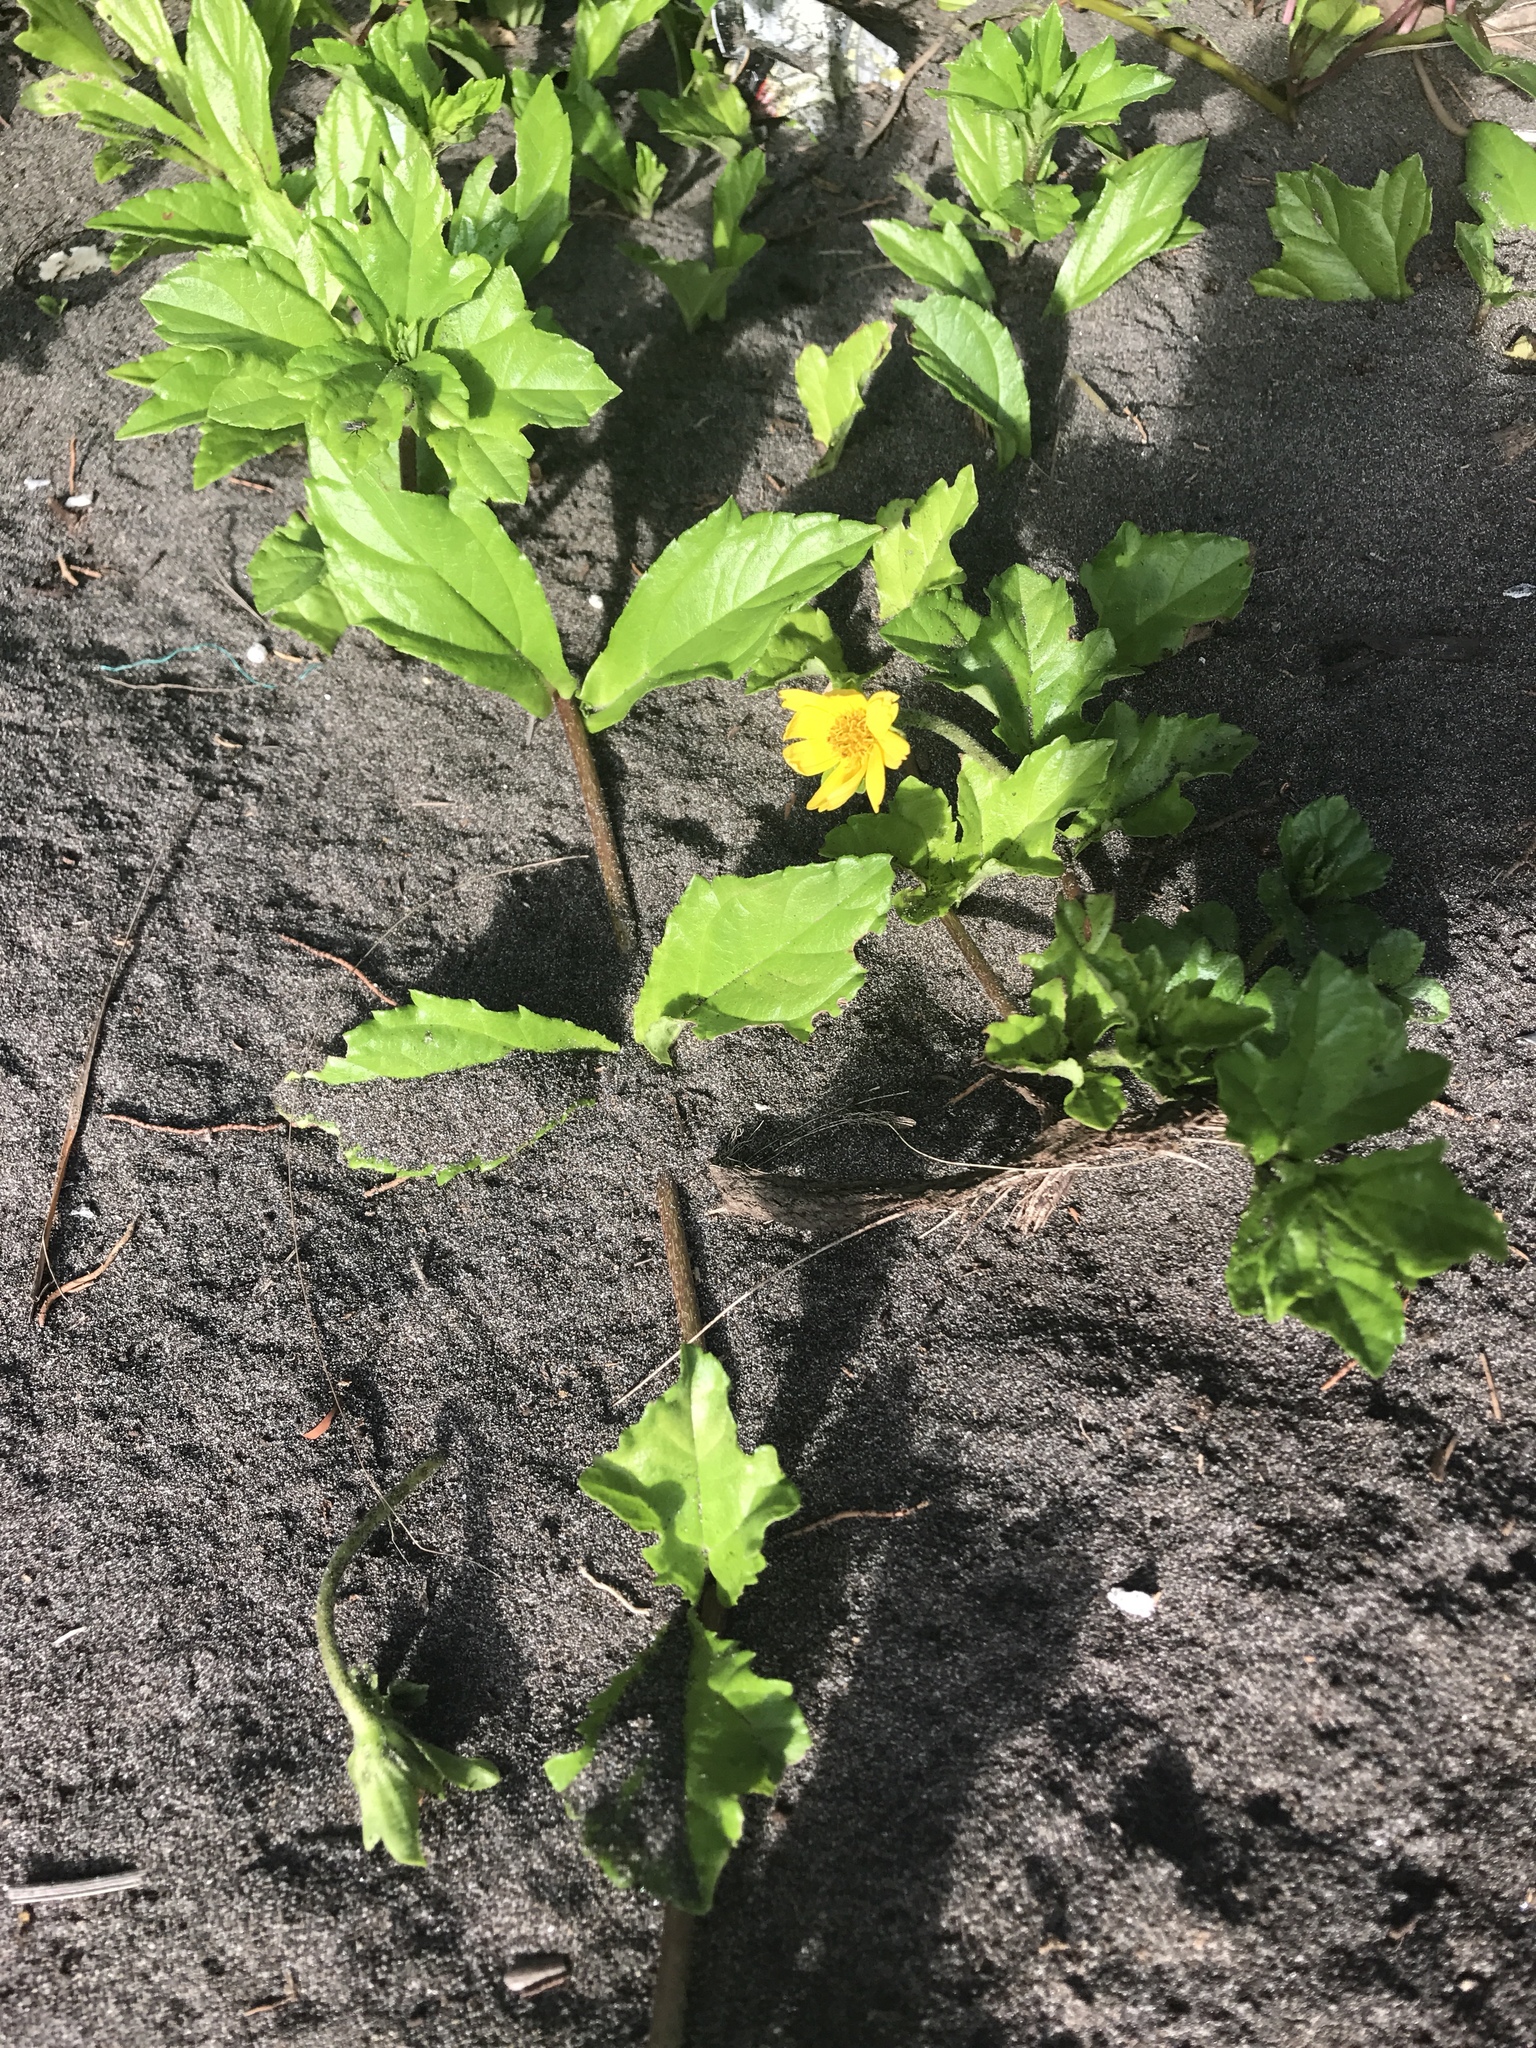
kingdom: Plantae
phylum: Tracheophyta
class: Magnoliopsida
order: Asterales
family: Asteraceae
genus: Sphagneticola
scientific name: Sphagneticola trilobata
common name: Bay biscayne creeping-oxeye
